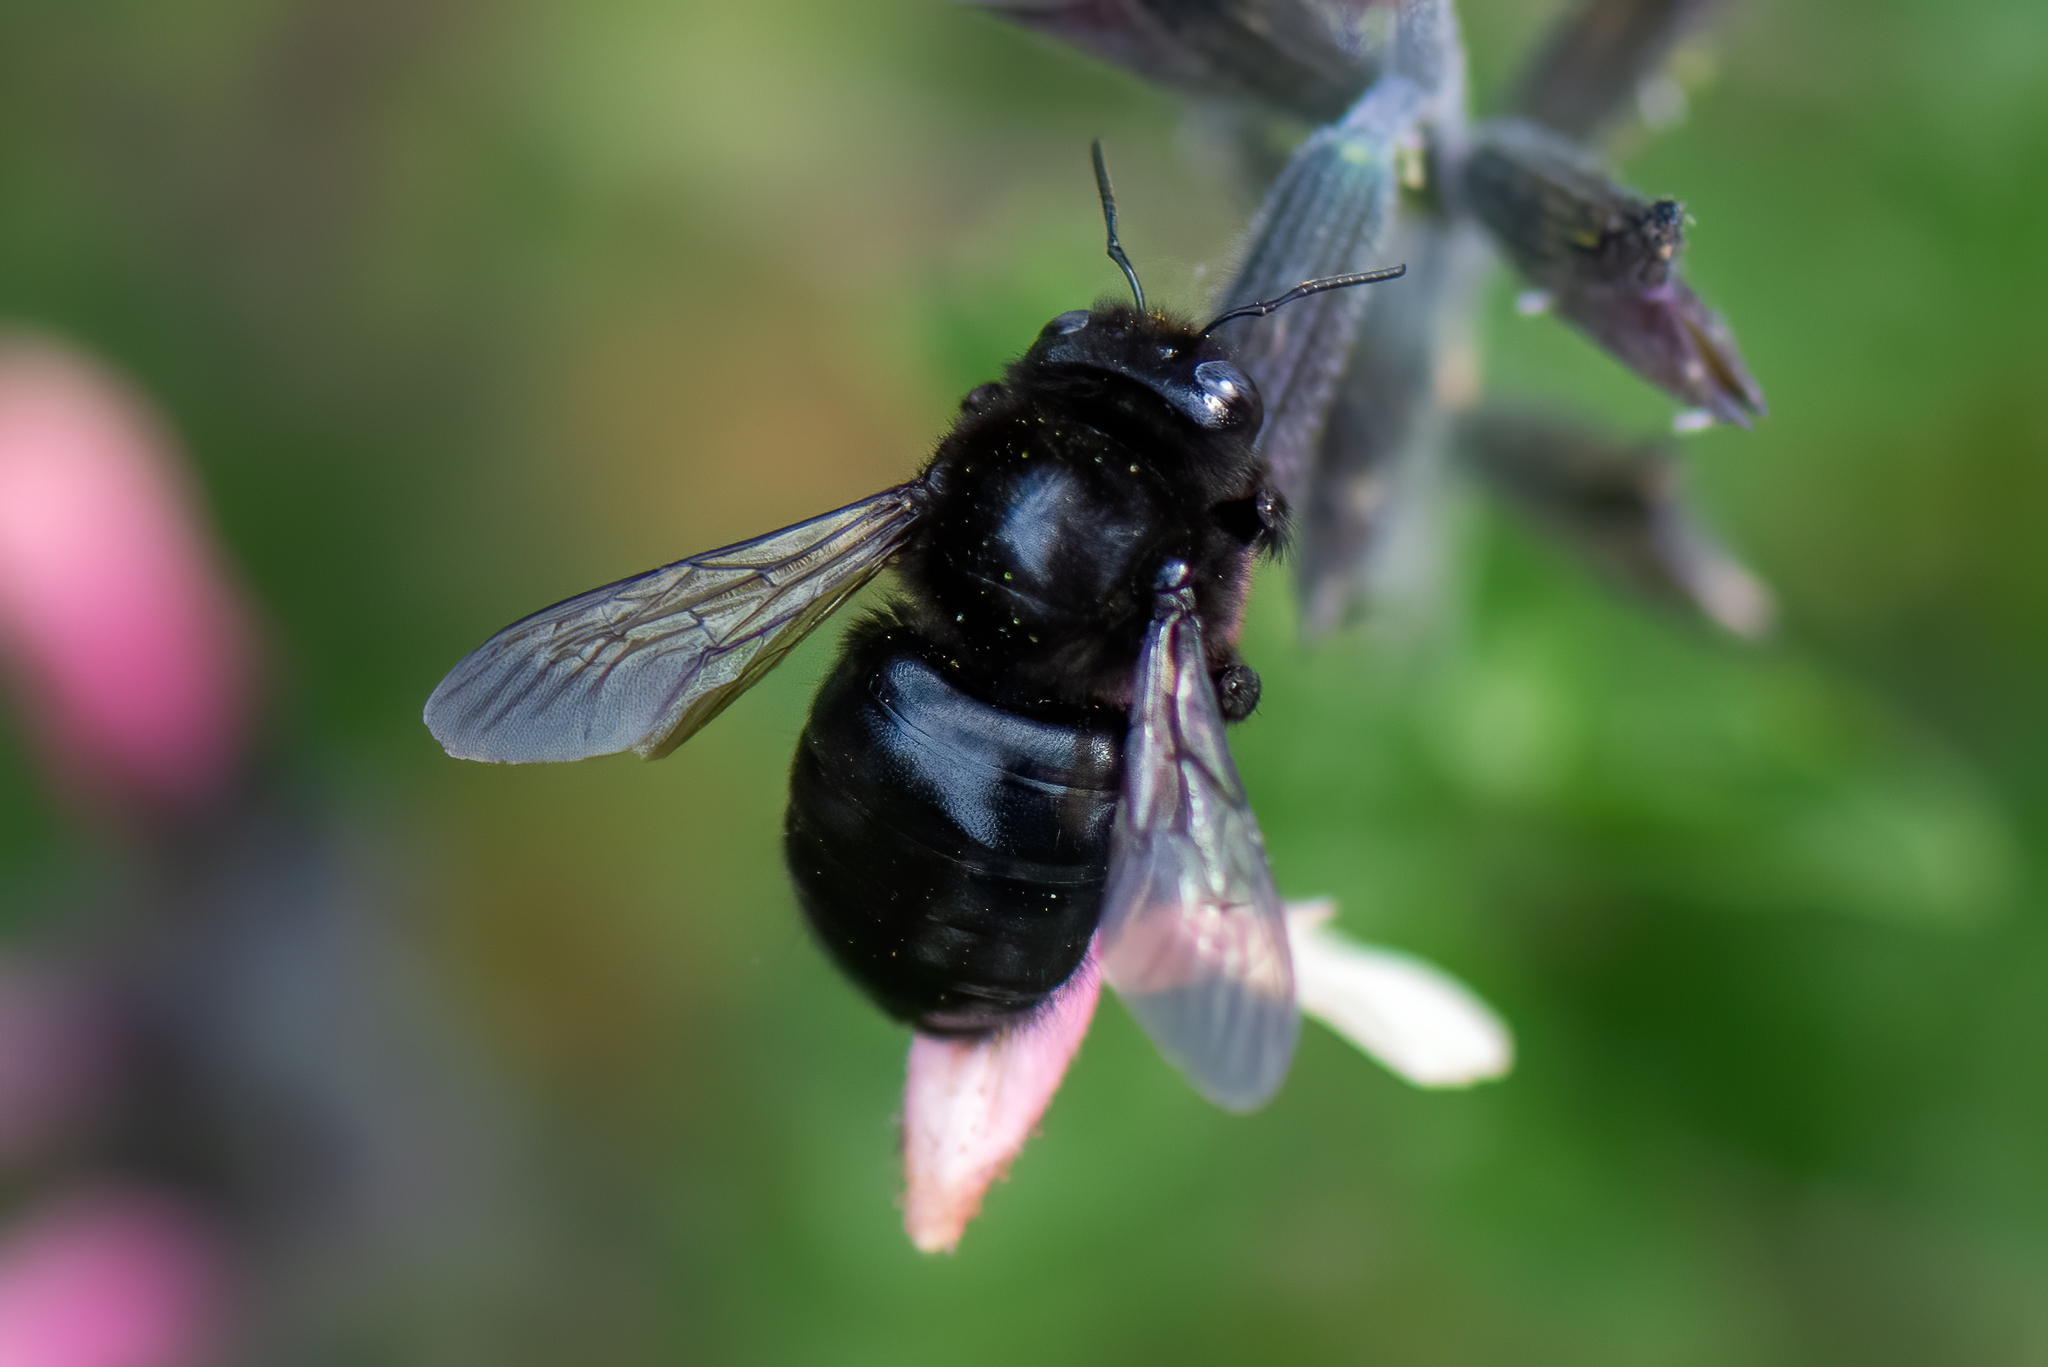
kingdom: Animalia
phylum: Arthropoda
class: Insecta
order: Hymenoptera
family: Apidae
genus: Xylocopa
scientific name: Xylocopa tabaniformis
